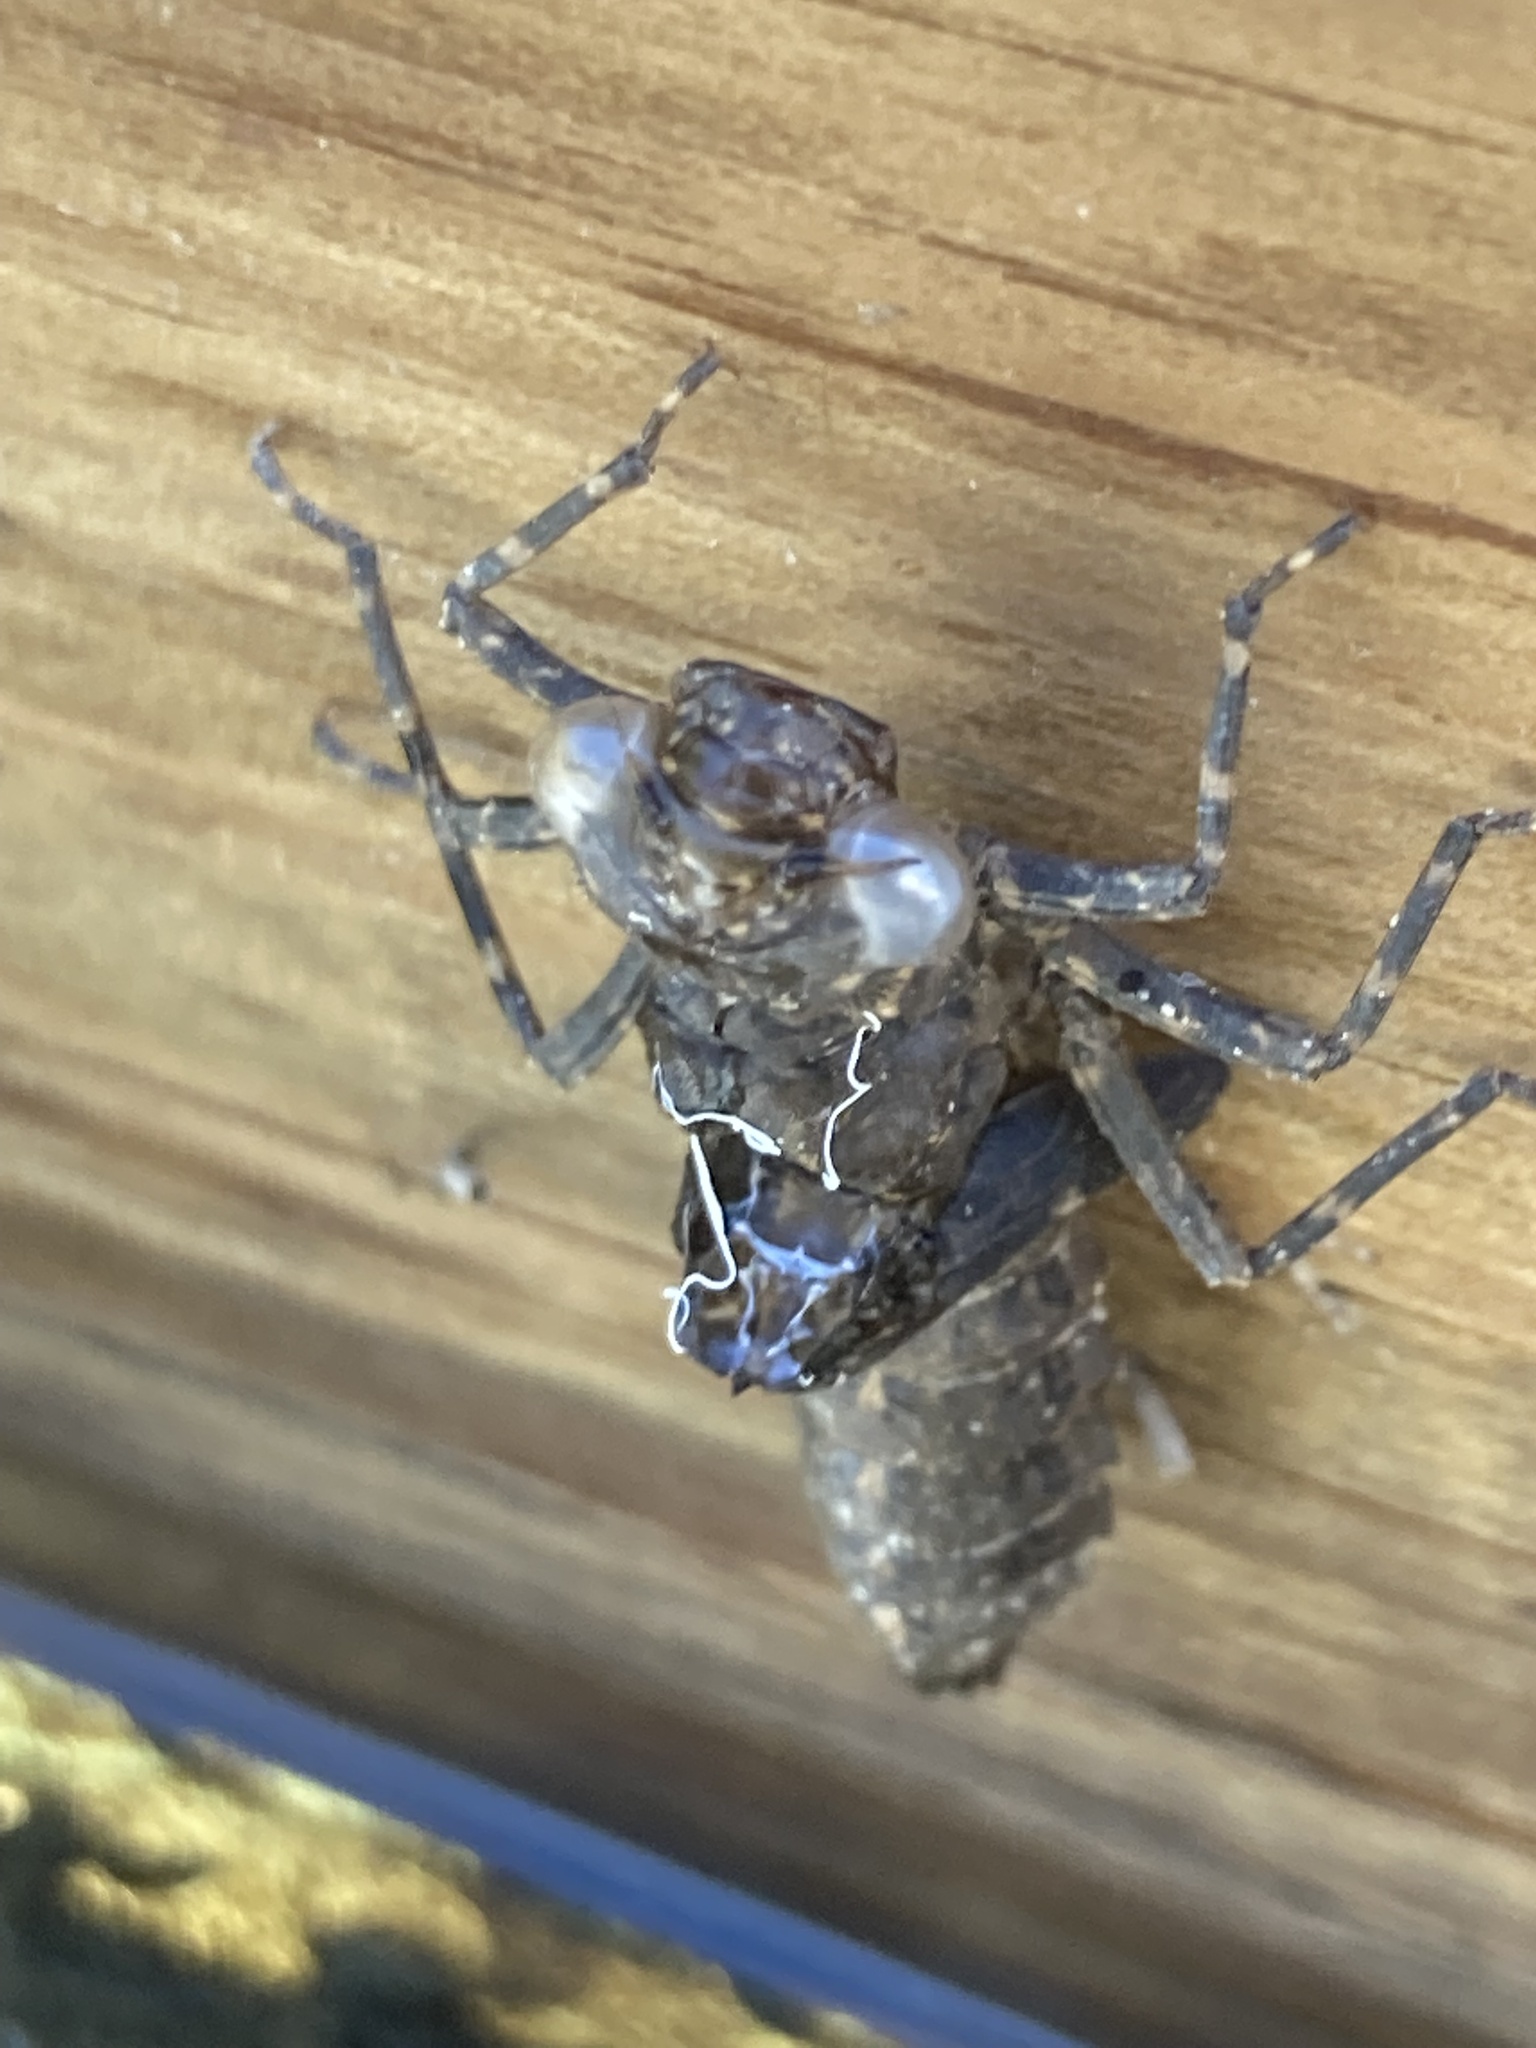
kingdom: Animalia
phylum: Arthropoda
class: Insecta
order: Odonata
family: Aeshnidae
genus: Boyeria
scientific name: Boyeria irene
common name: Western spectre
